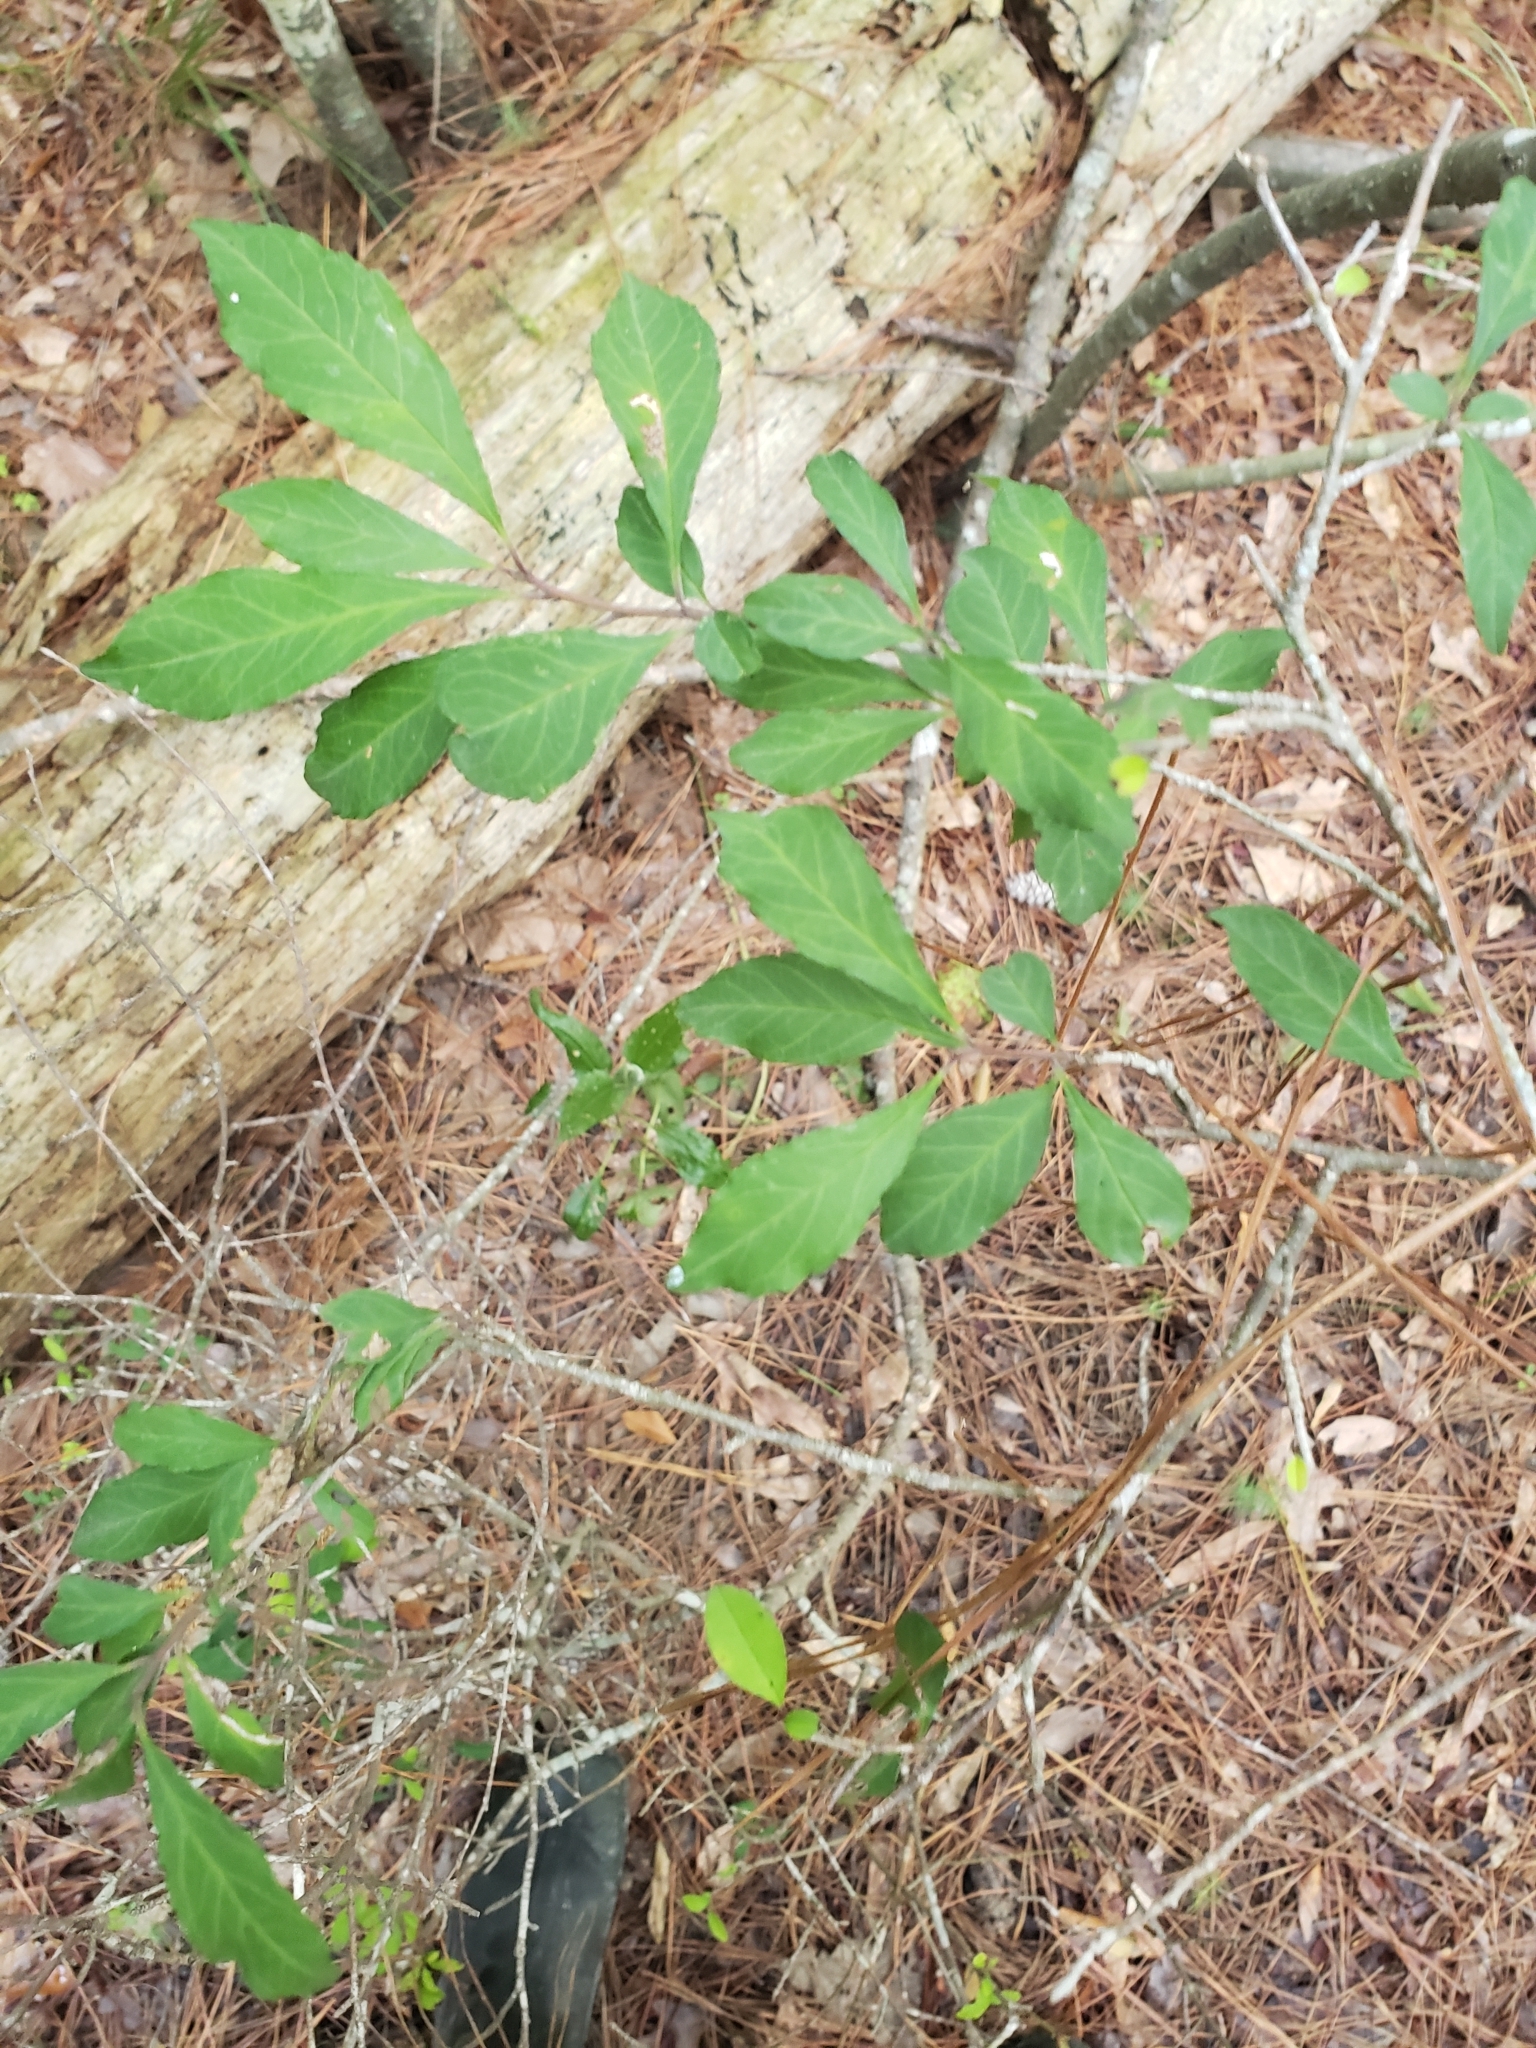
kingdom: Plantae
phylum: Tracheophyta
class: Magnoliopsida
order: Aquifoliales
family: Aquifoliaceae
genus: Ilex
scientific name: Ilex decidua
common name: Possum-haw
